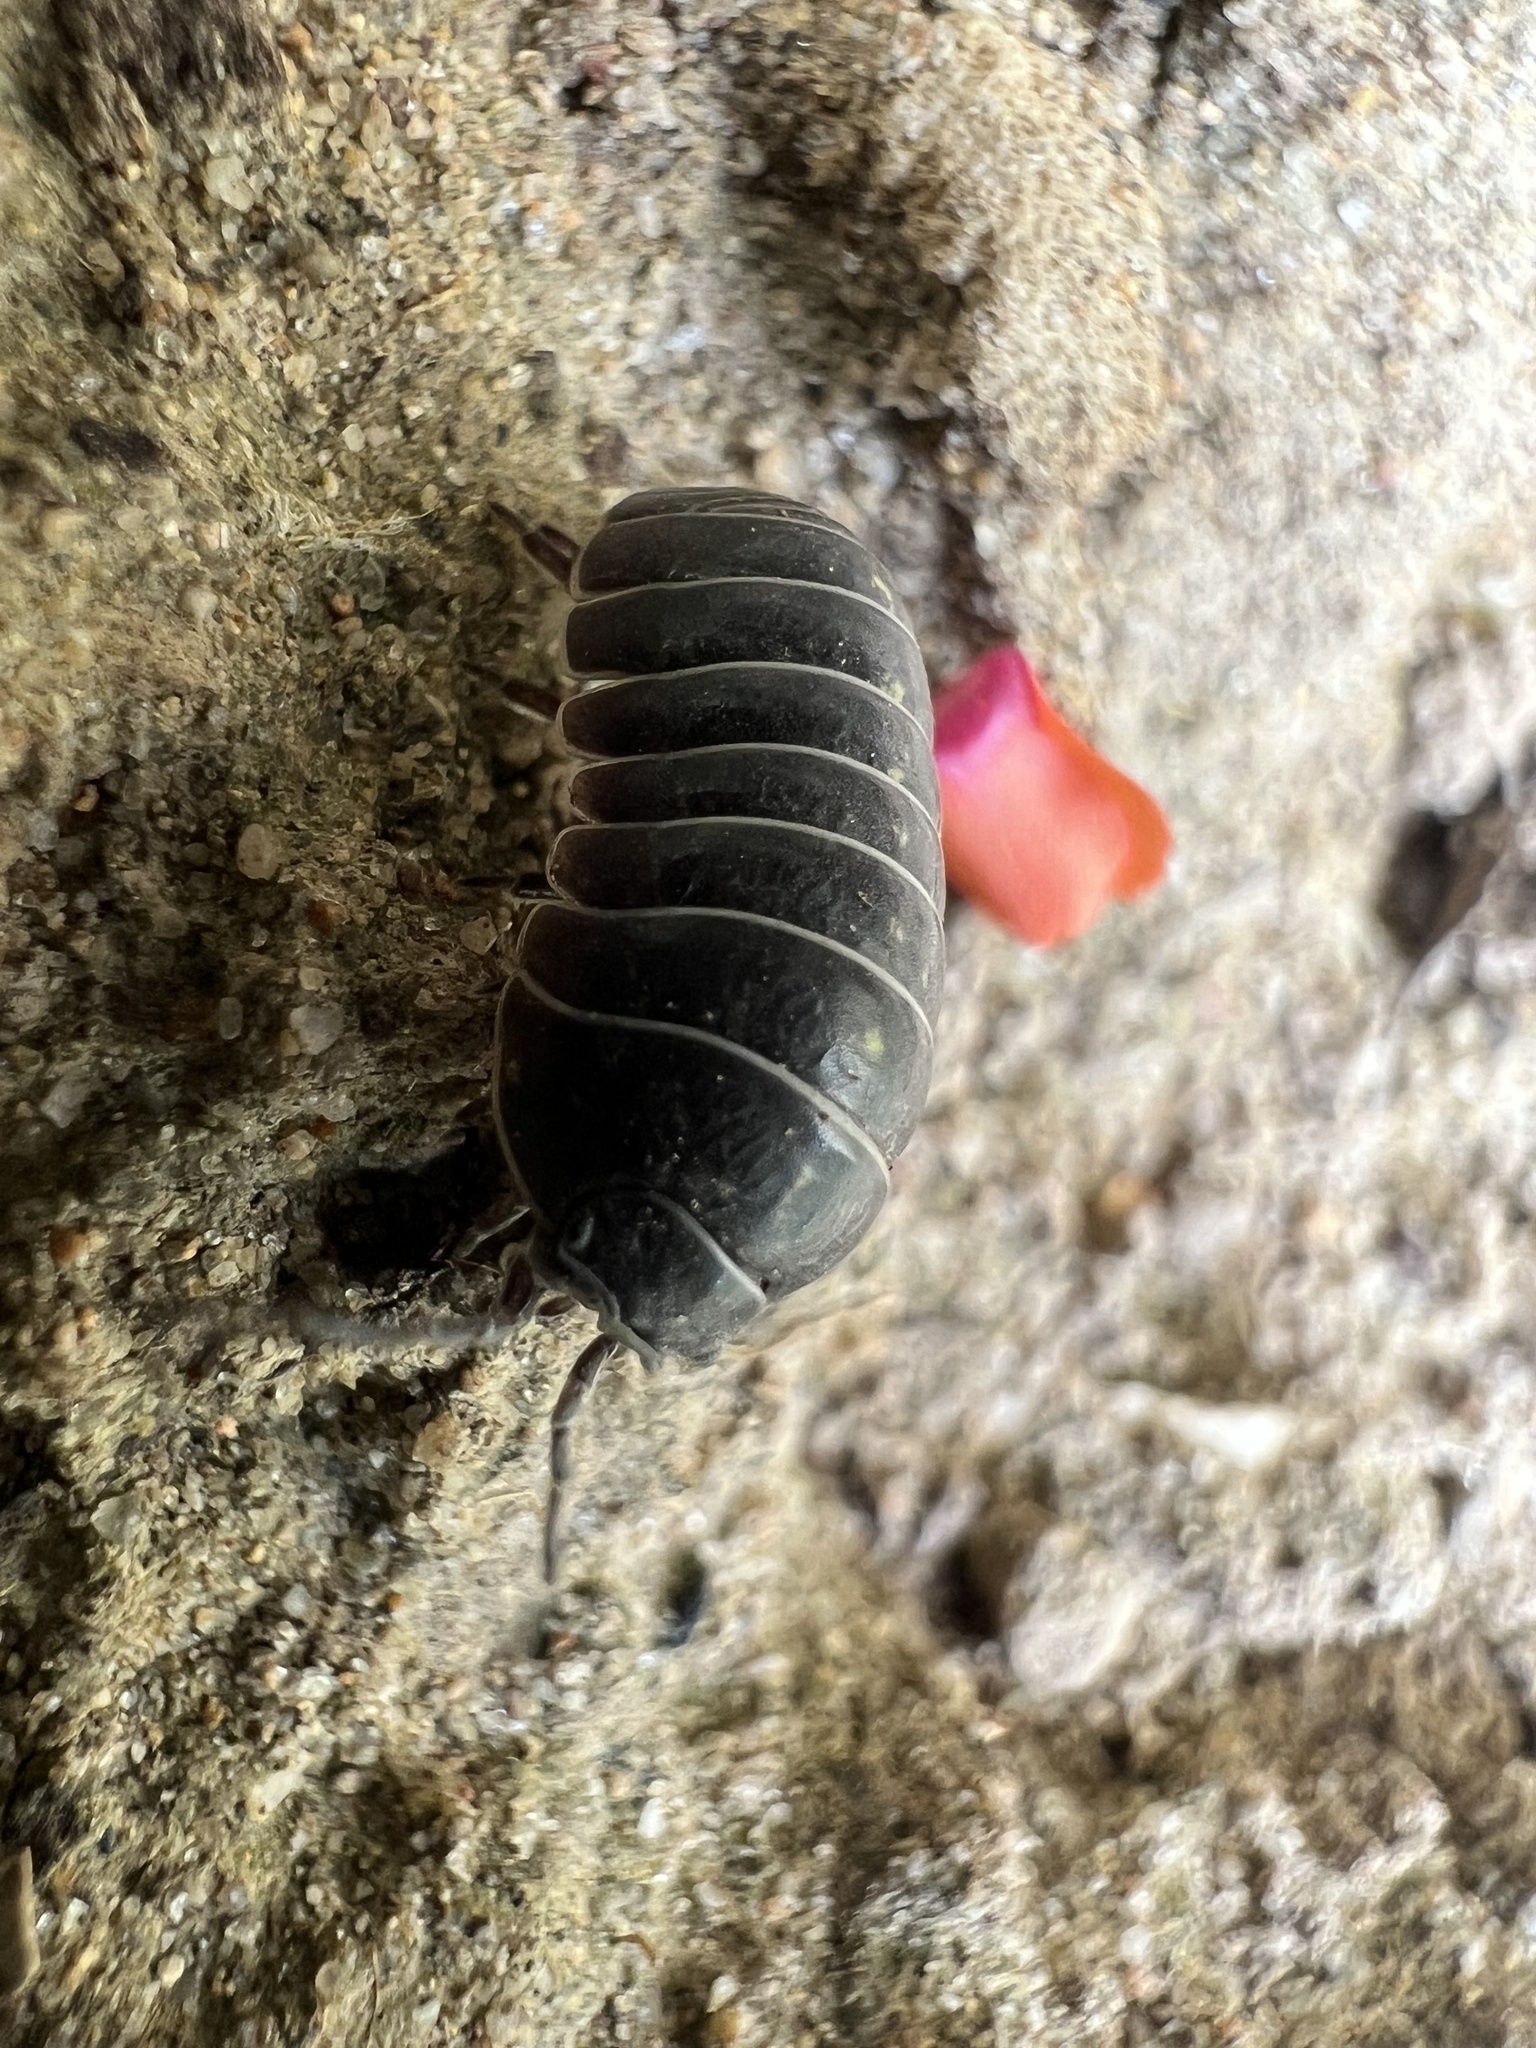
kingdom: Animalia
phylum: Arthropoda
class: Malacostraca
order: Isopoda
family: Armadillidiidae
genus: Armadillidium
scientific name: Armadillidium vulgare
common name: Common pill woodlouse
